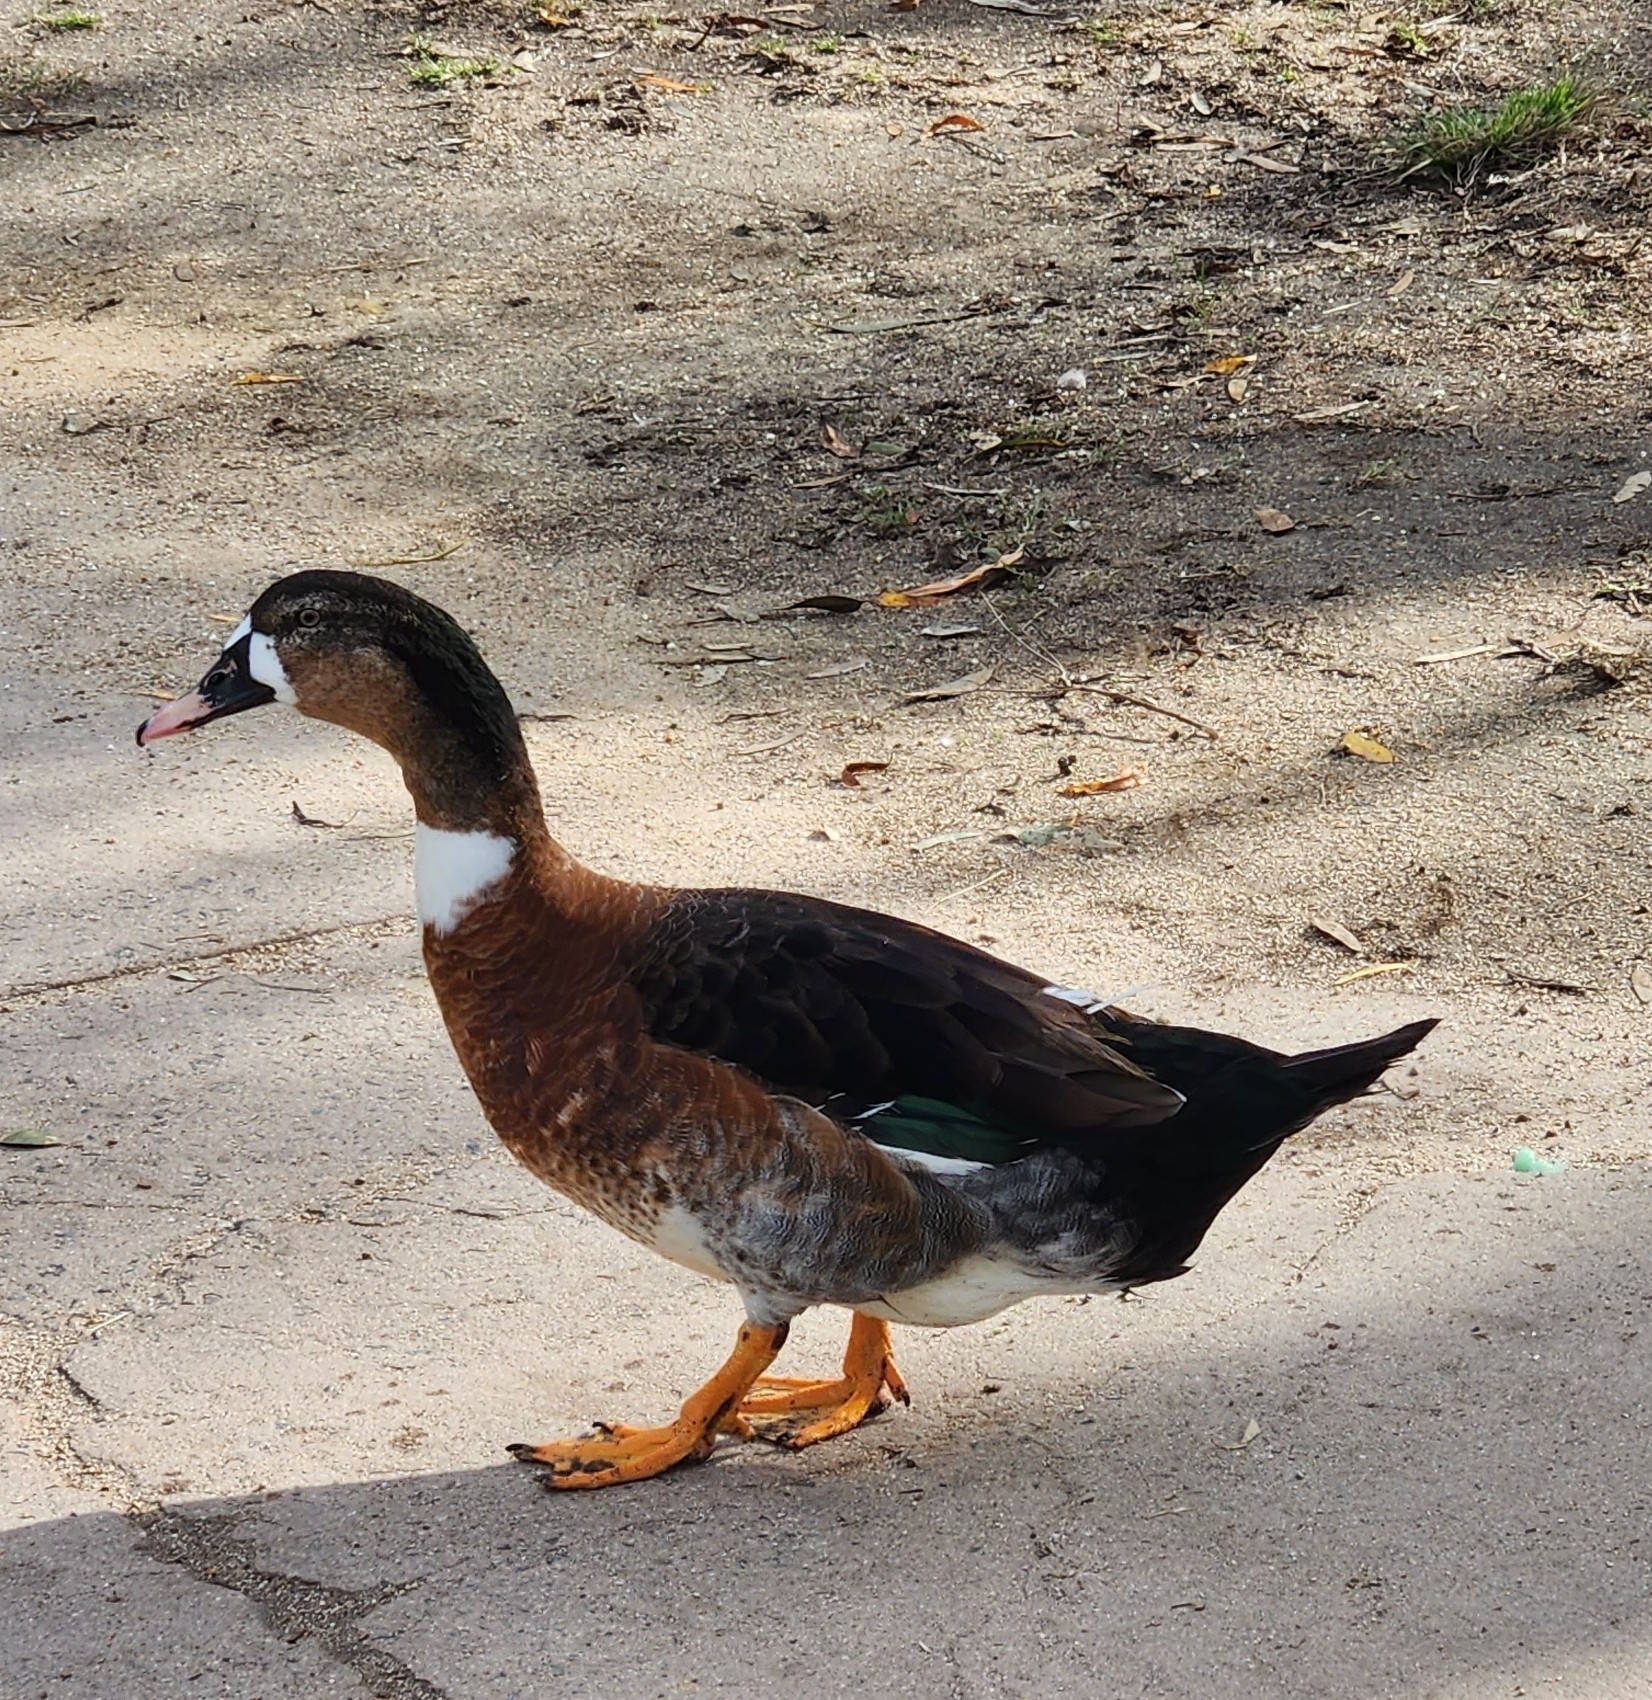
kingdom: Animalia
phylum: Chordata
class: Aves
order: Anseriformes
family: Anatidae
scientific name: Anatidae
